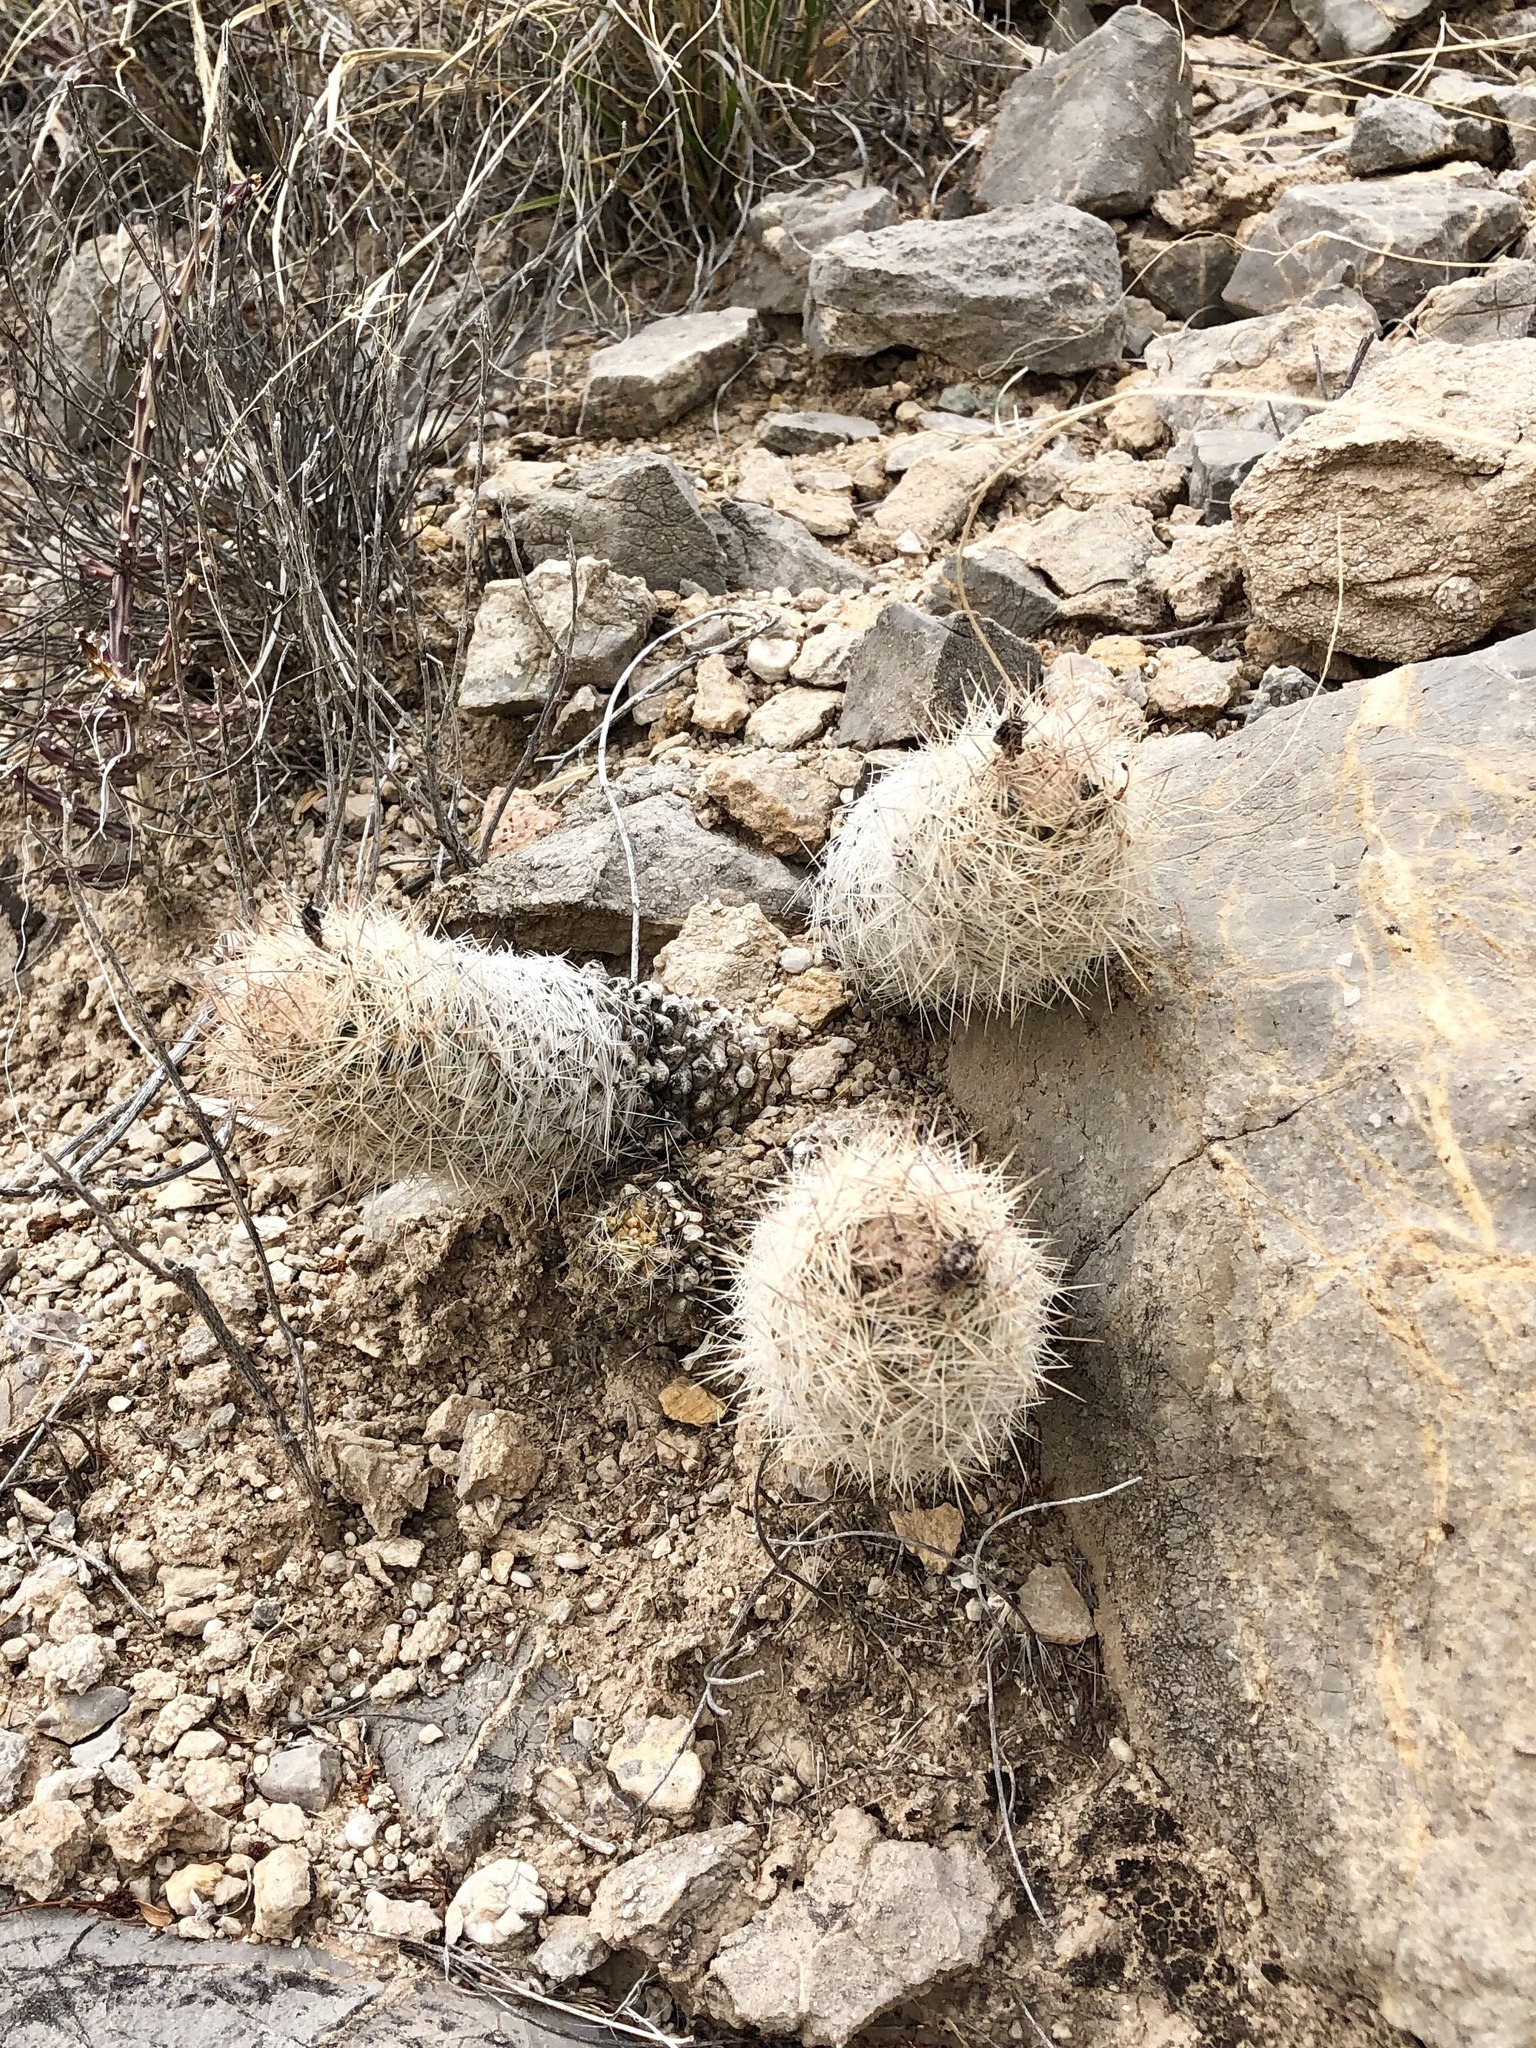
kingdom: Plantae
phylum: Tracheophyta
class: Magnoliopsida
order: Caryophyllales
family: Cactaceae
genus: Pelecyphora
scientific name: Pelecyphora tuberculosa
